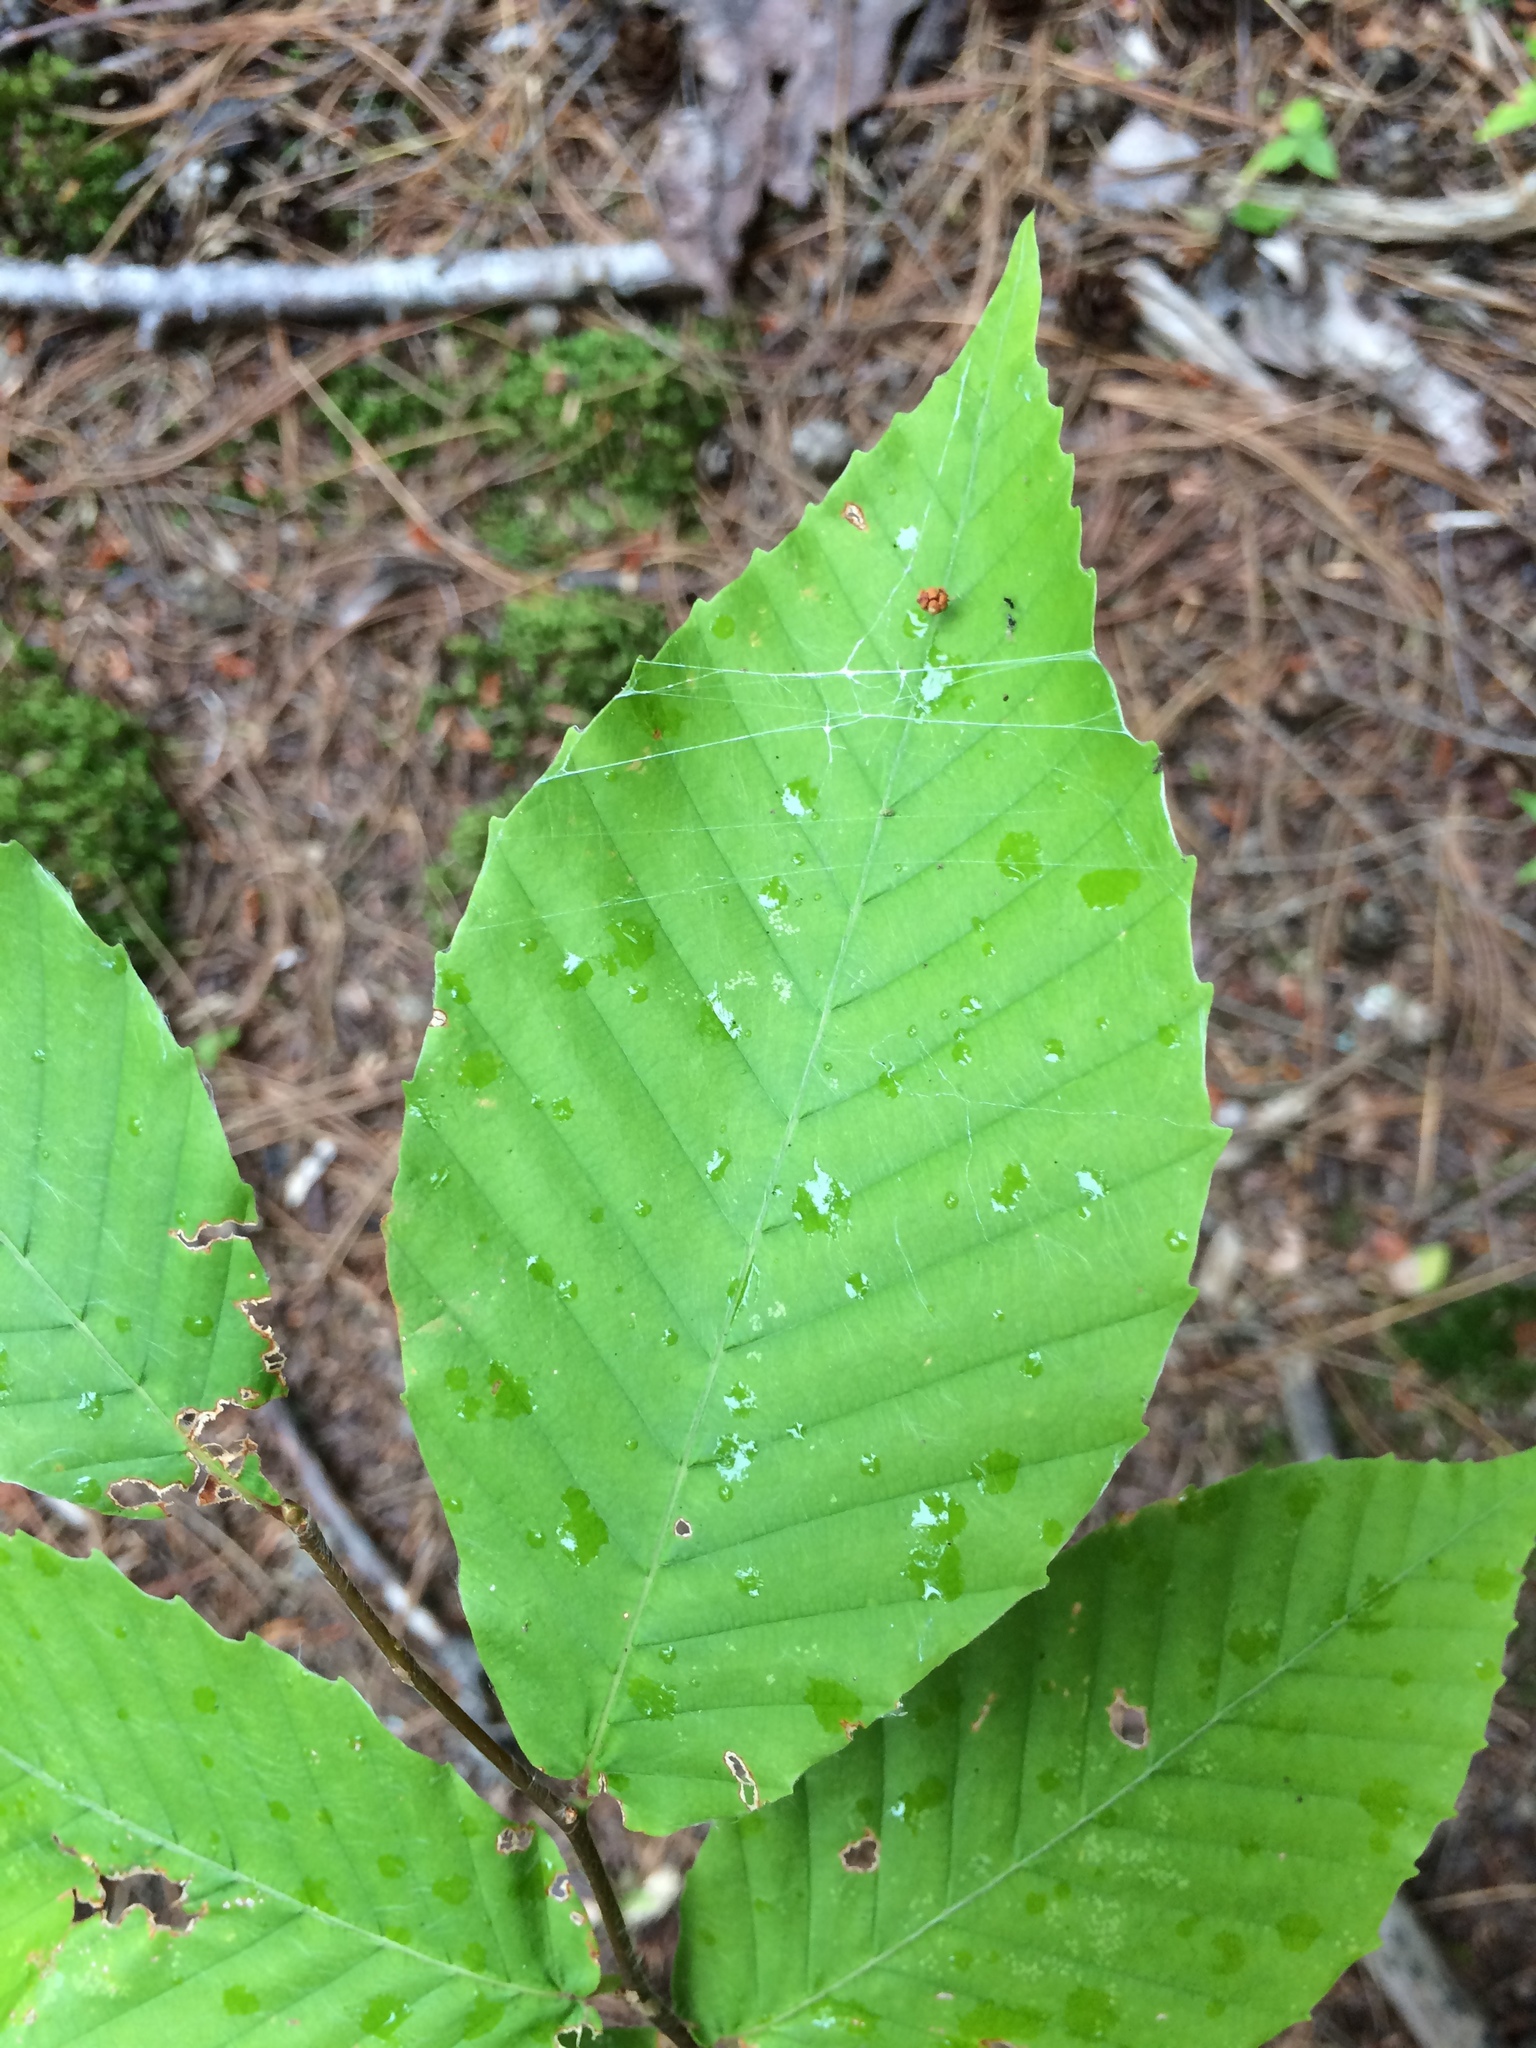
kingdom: Plantae
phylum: Tracheophyta
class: Magnoliopsida
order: Fagales
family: Fagaceae
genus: Fagus
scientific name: Fagus grandifolia
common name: American beech
